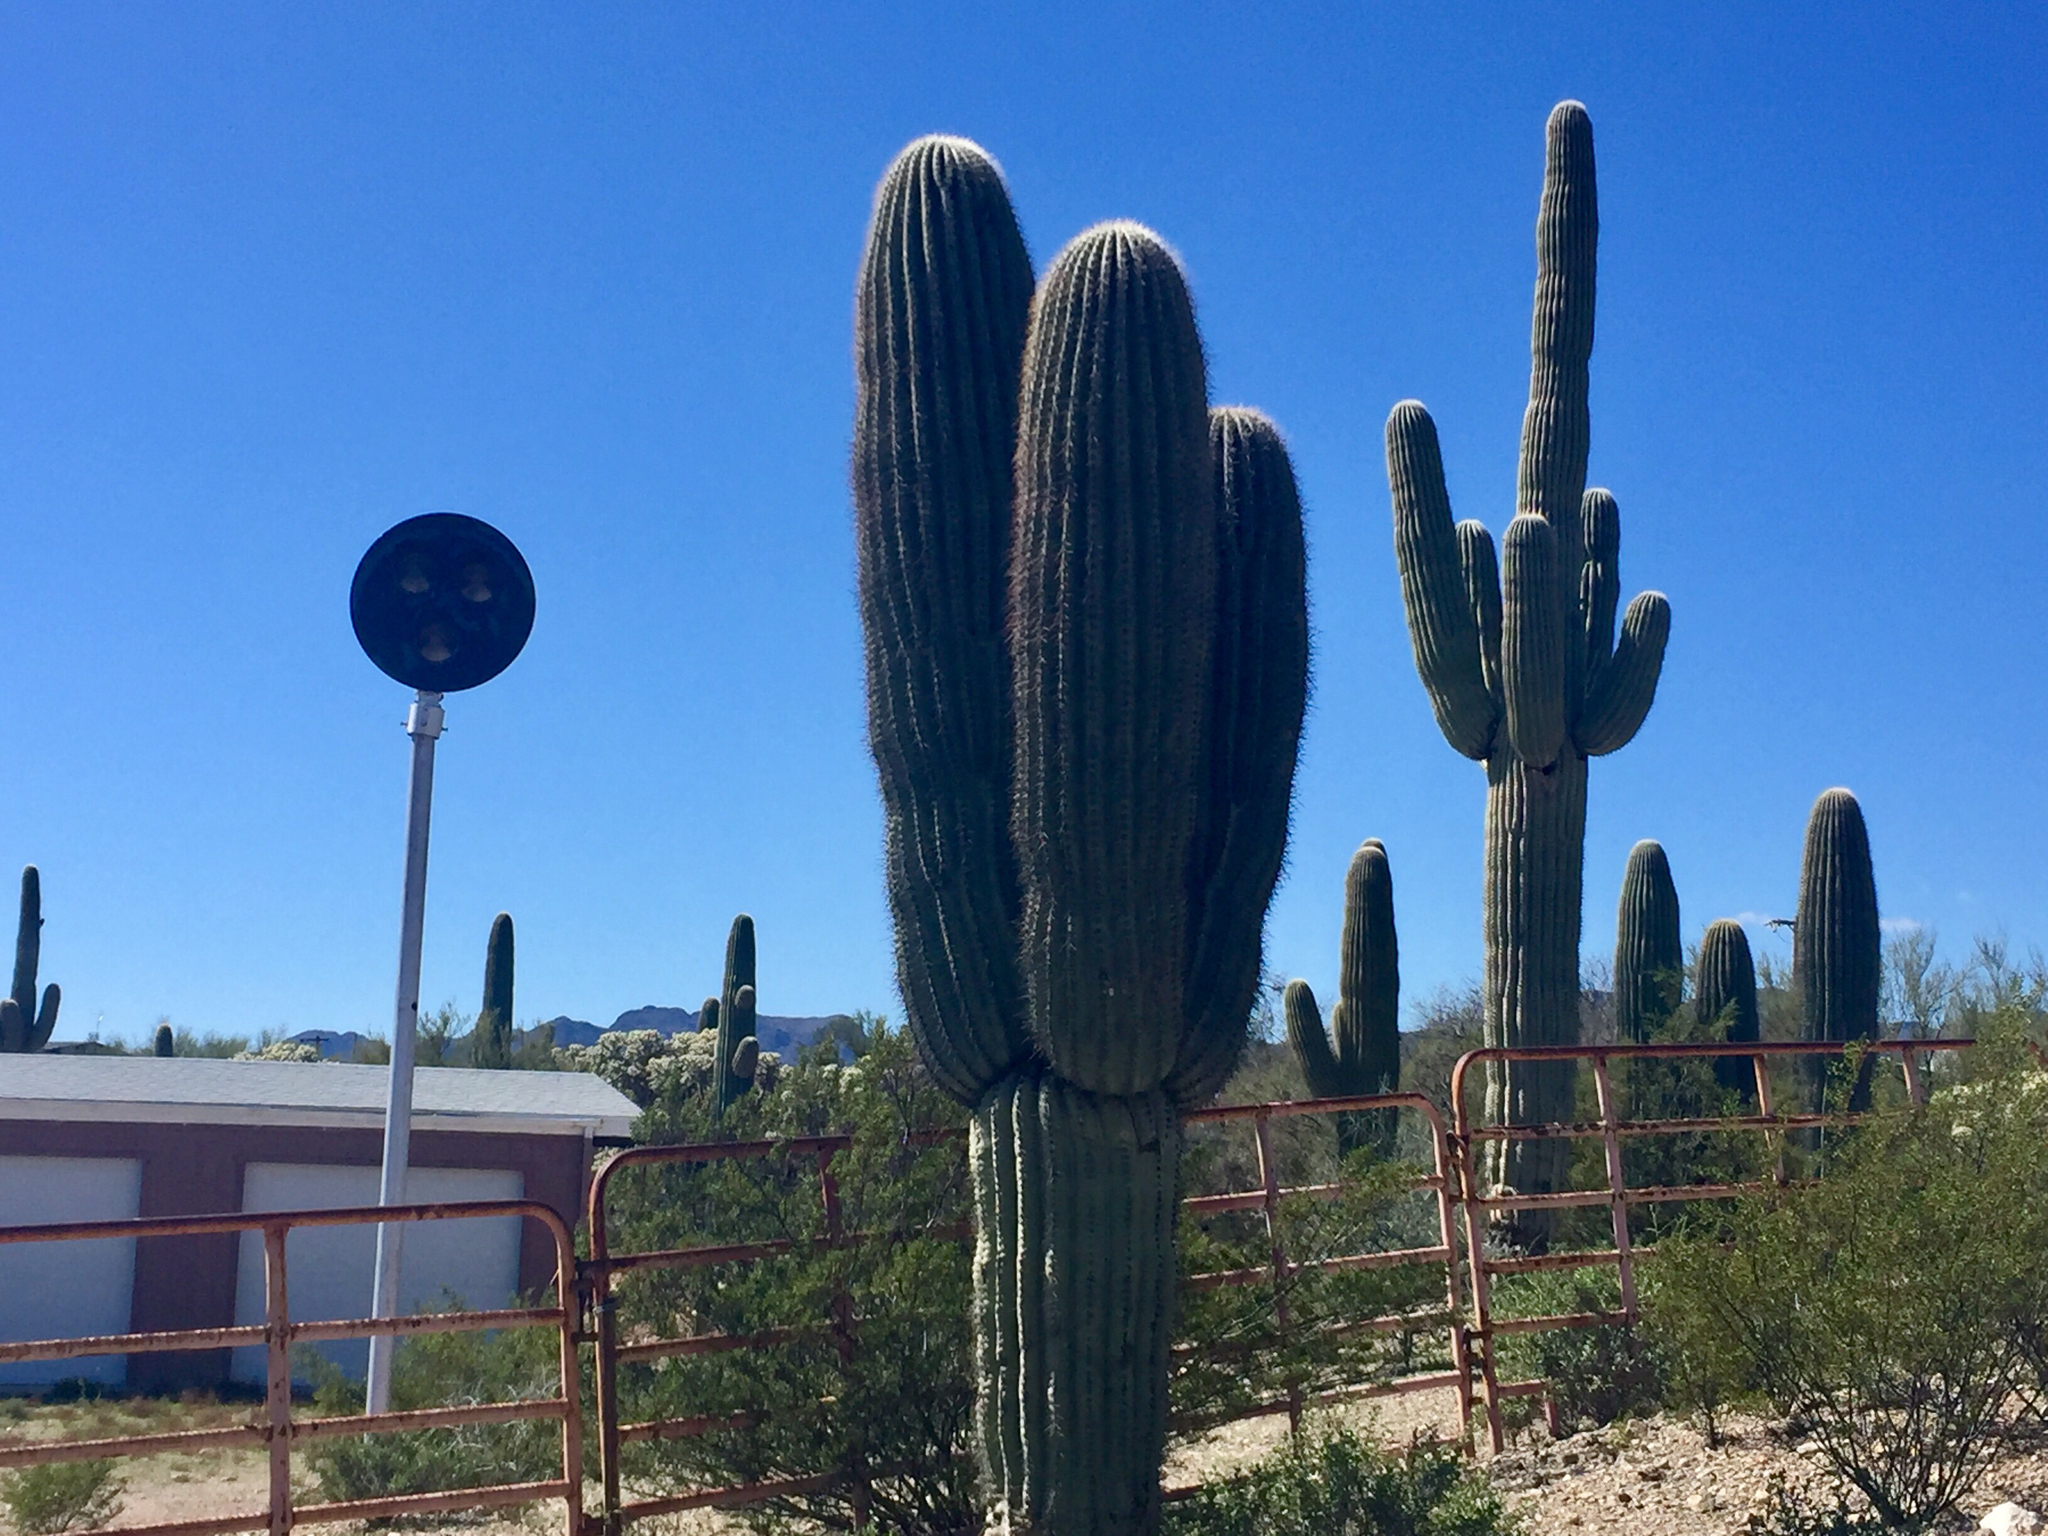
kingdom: Plantae
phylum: Tracheophyta
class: Magnoliopsida
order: Caryophyllales
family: Cactaceae
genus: Carnegiea
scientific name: Carnegiea gigantea
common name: Saguaro
